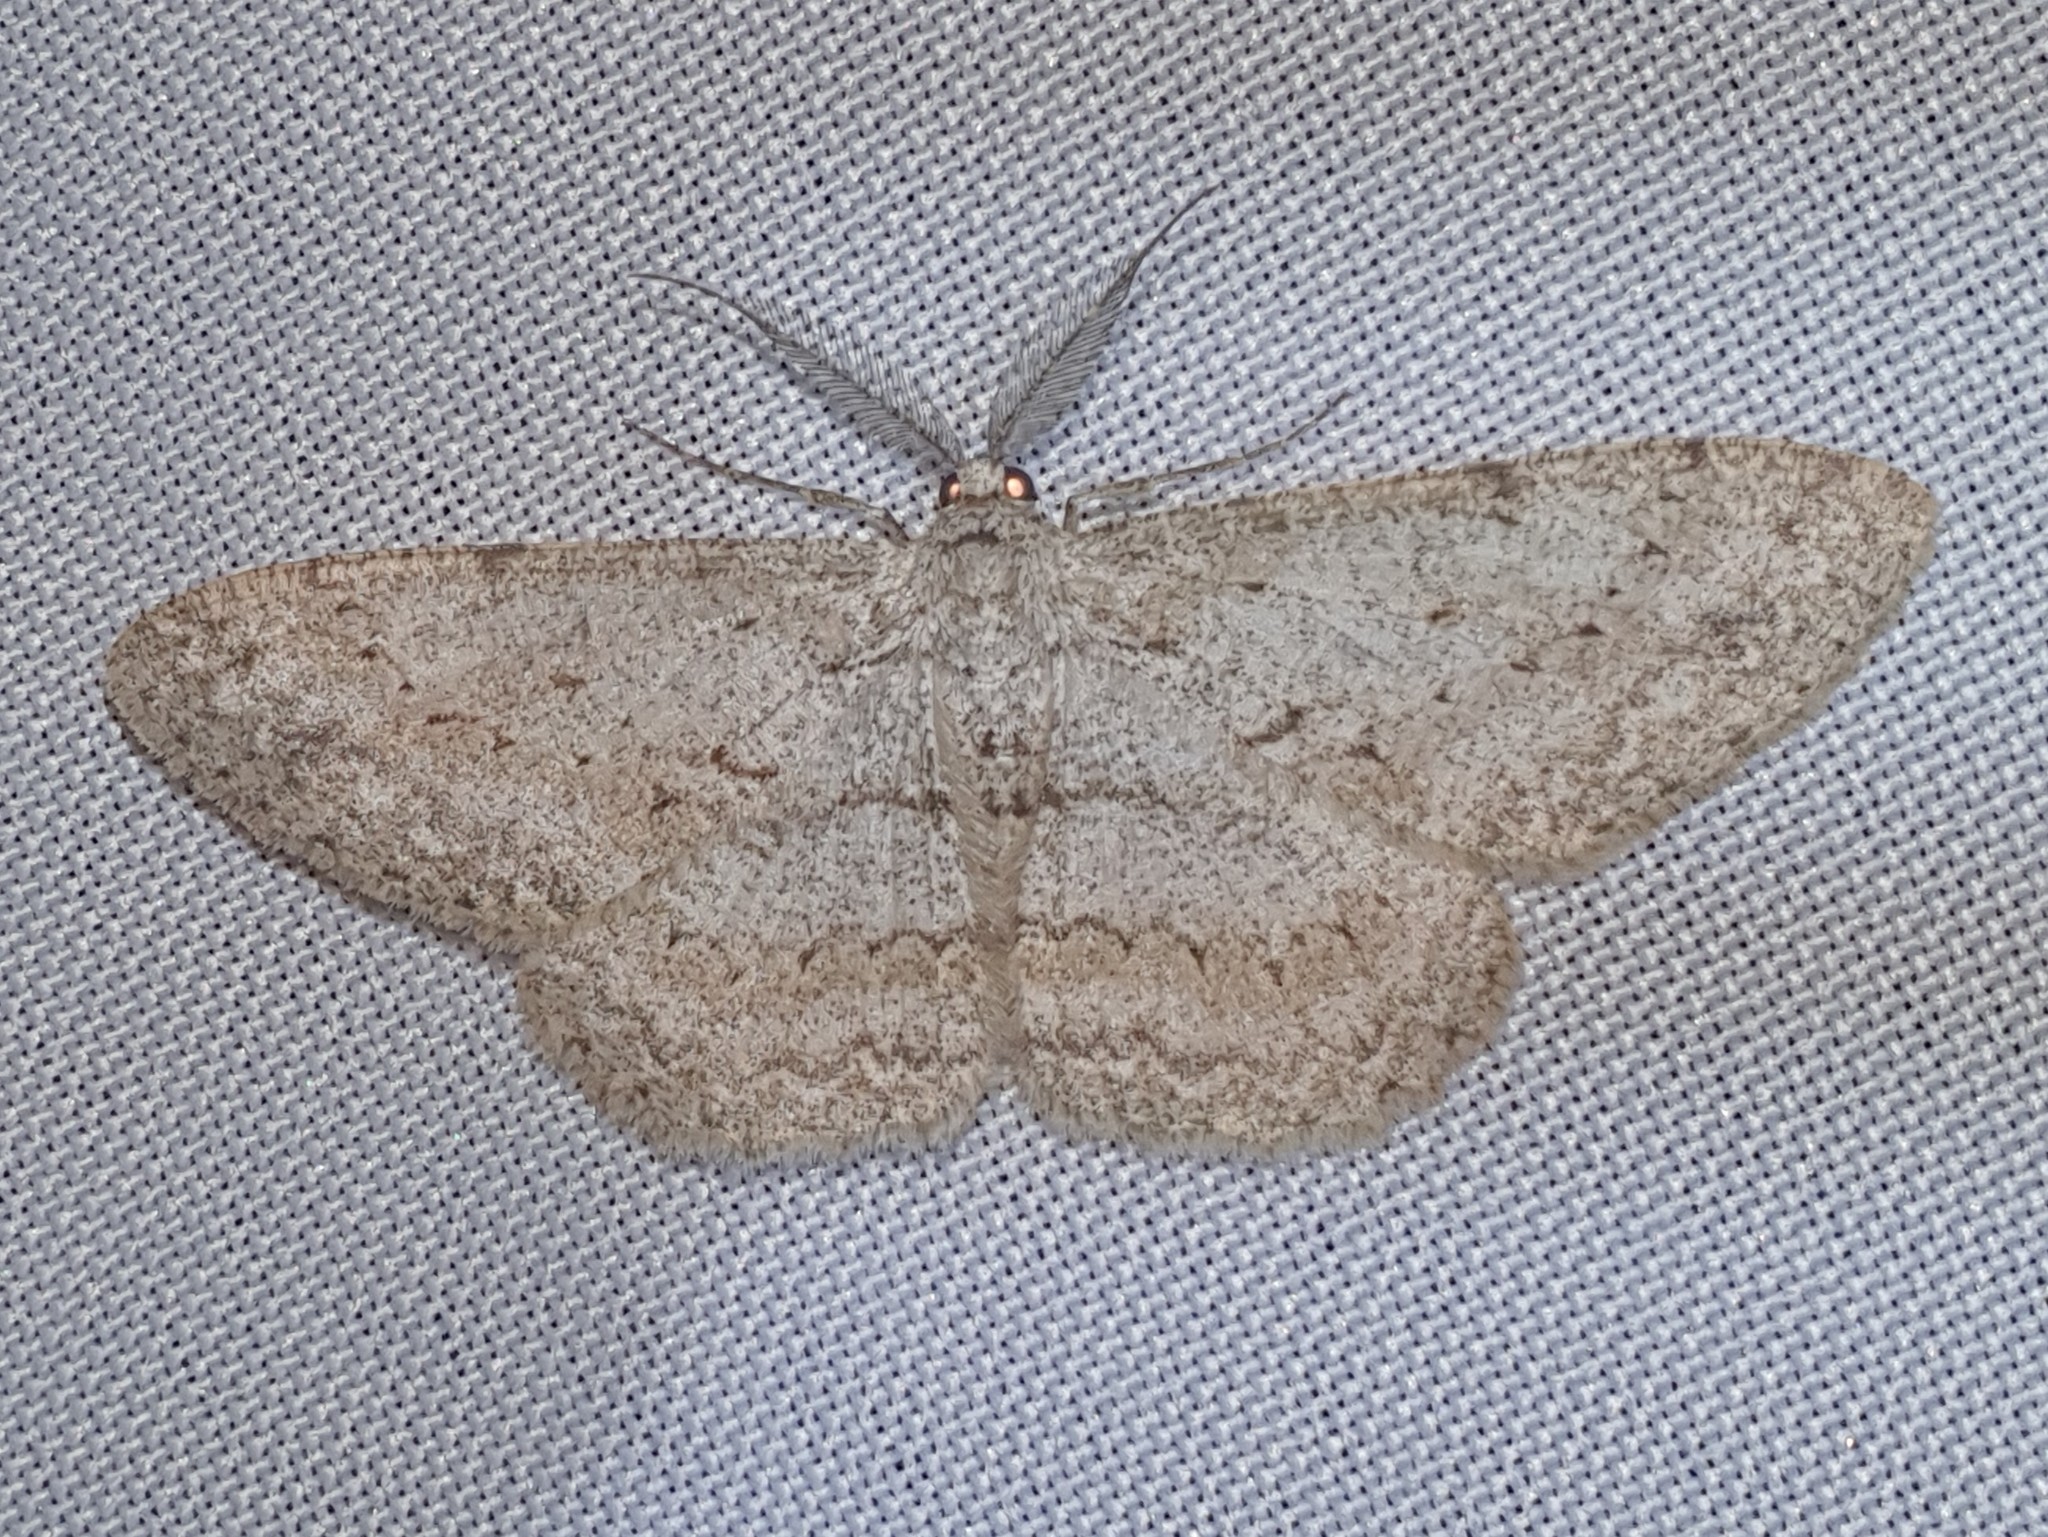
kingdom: Animalia
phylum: Arthropoda
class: Insecta
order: Lepidoptera
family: Geometridae
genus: Hypomecis
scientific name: Hypomecis punctinalis
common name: Pale oak beauty
